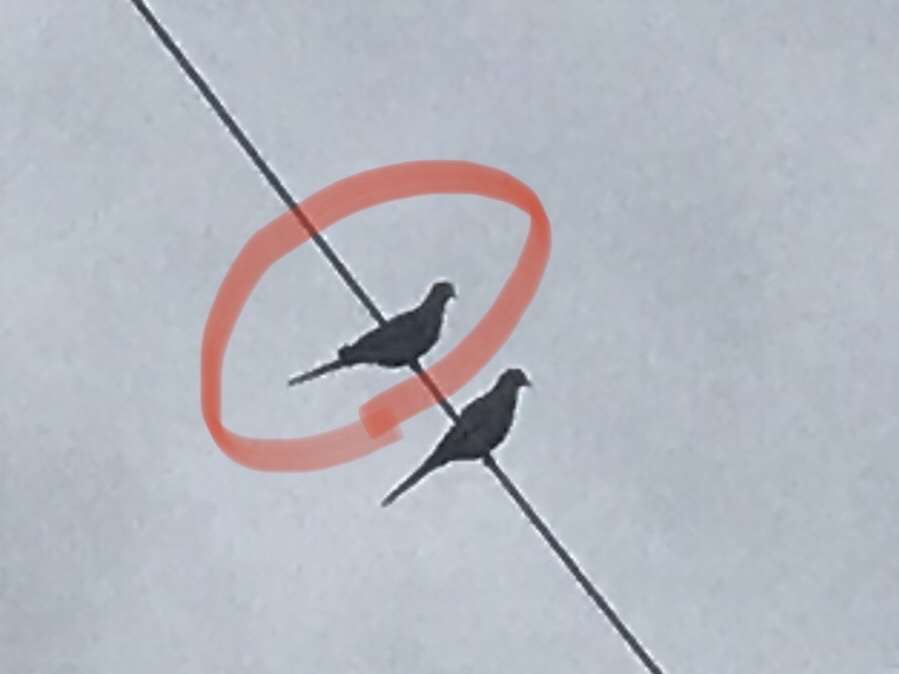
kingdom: Animalia
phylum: Chordata
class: Aves
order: Columbiformes
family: Columbidae
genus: Zenaida
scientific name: Zenaida macroura
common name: Mourning dove
